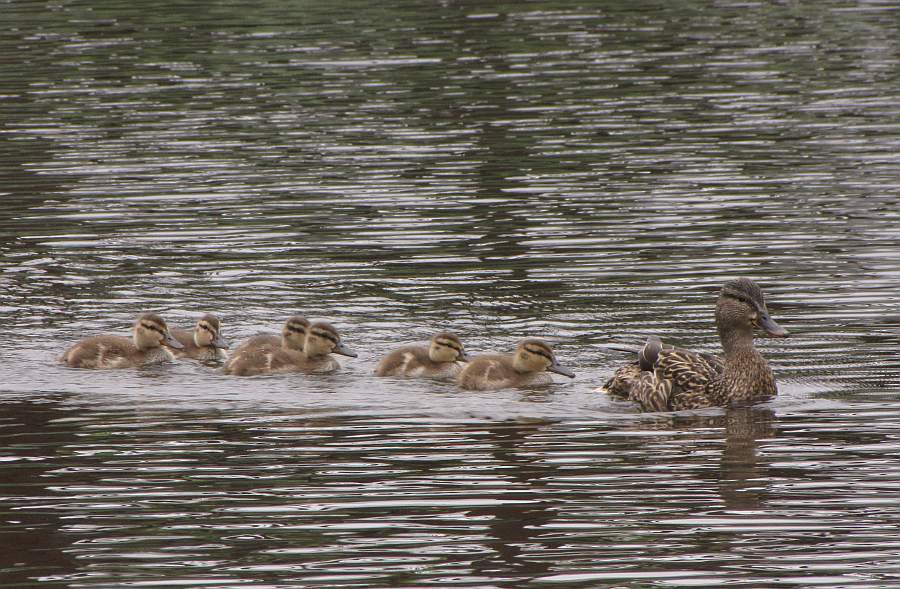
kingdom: Animalia
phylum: Chordata
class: Aves
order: Anseriformes
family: Anatidae
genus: Anas
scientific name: Anas platyrhynchos
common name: Mallard
